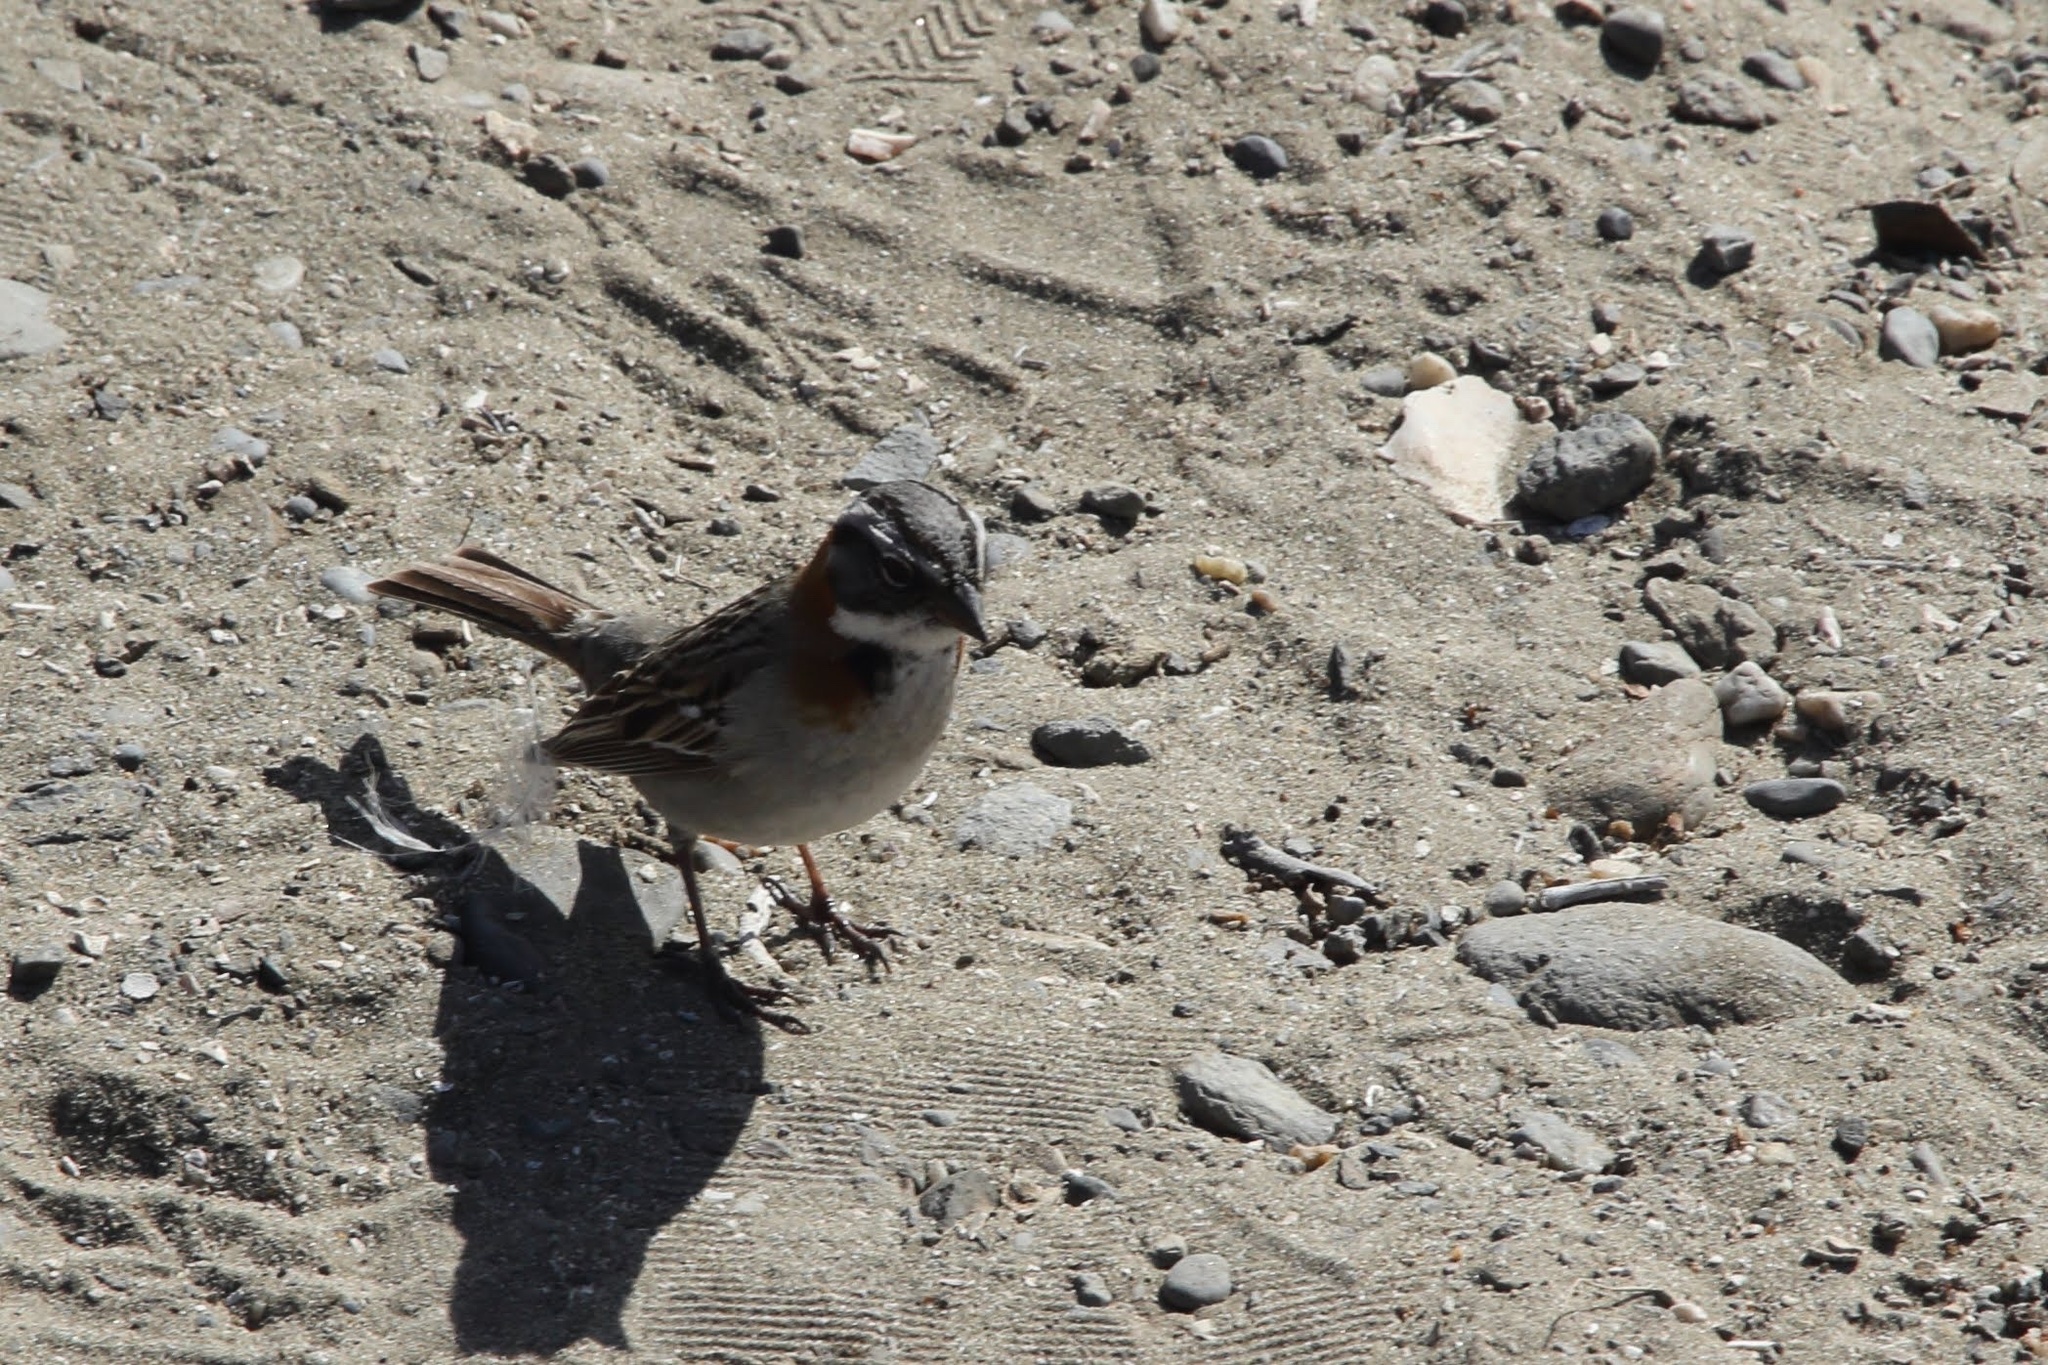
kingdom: Animalia
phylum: Chordata
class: Aves
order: Passeriformes
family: Passerellidae
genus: Zonotrichia
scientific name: Zonotrichia capensis
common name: Rufous-collared sparrow
